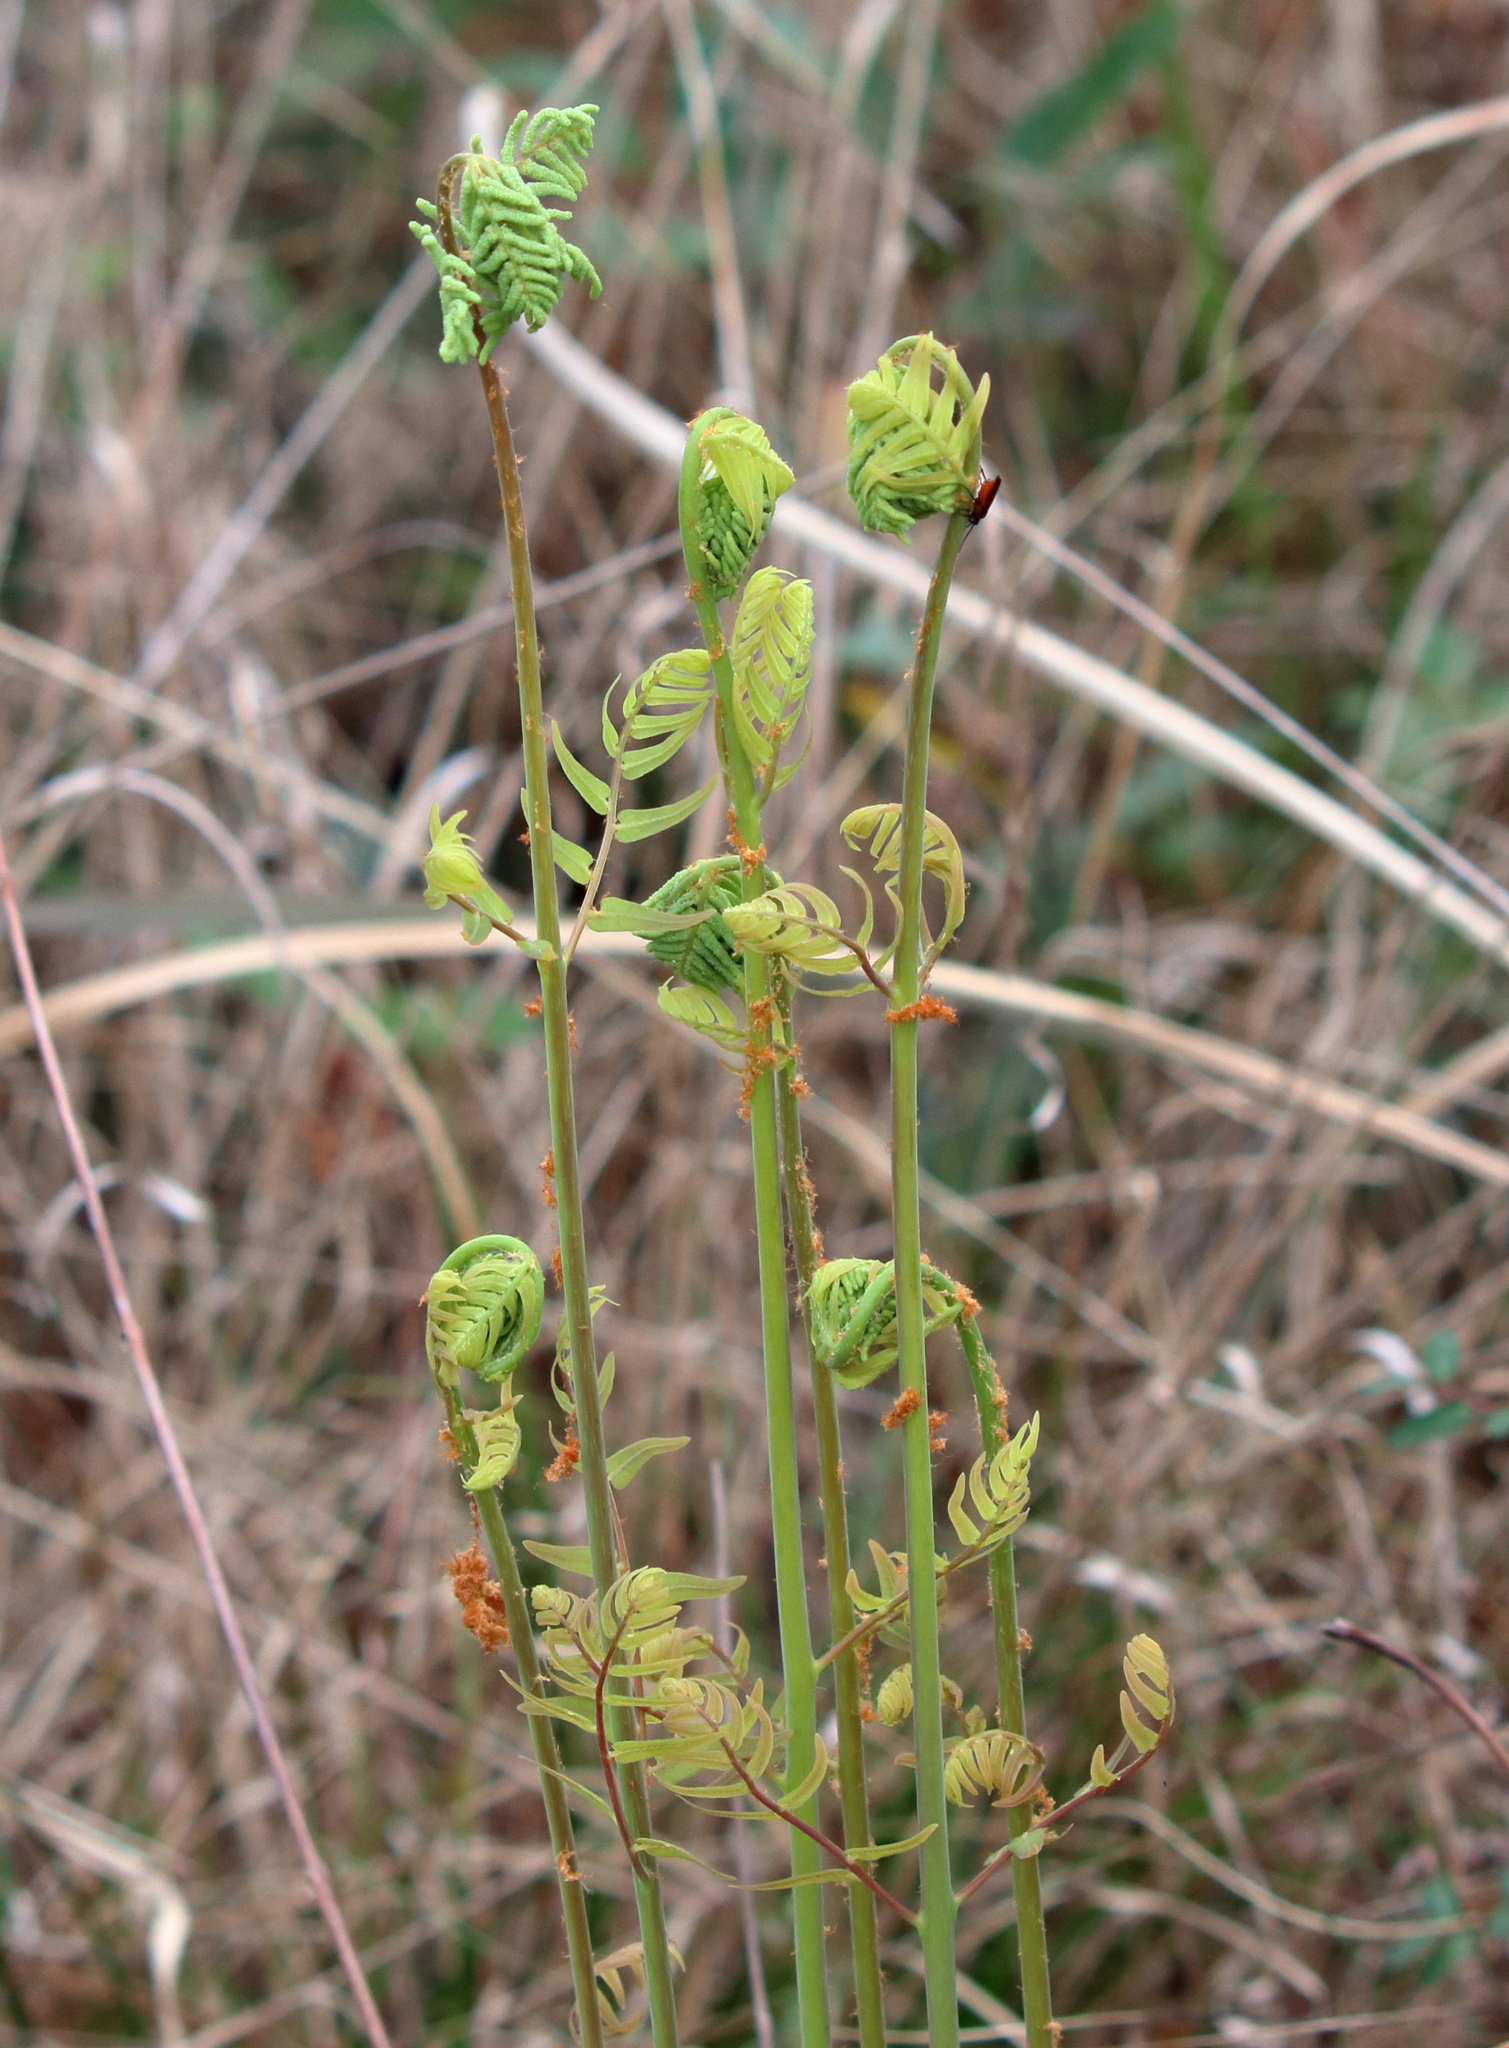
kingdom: Plantae
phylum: Tracheophyta
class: Polypodiopsida
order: Osmundales
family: Osmundaceae
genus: Osmunda
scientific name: Osmunda spectabilis
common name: American royal fern
